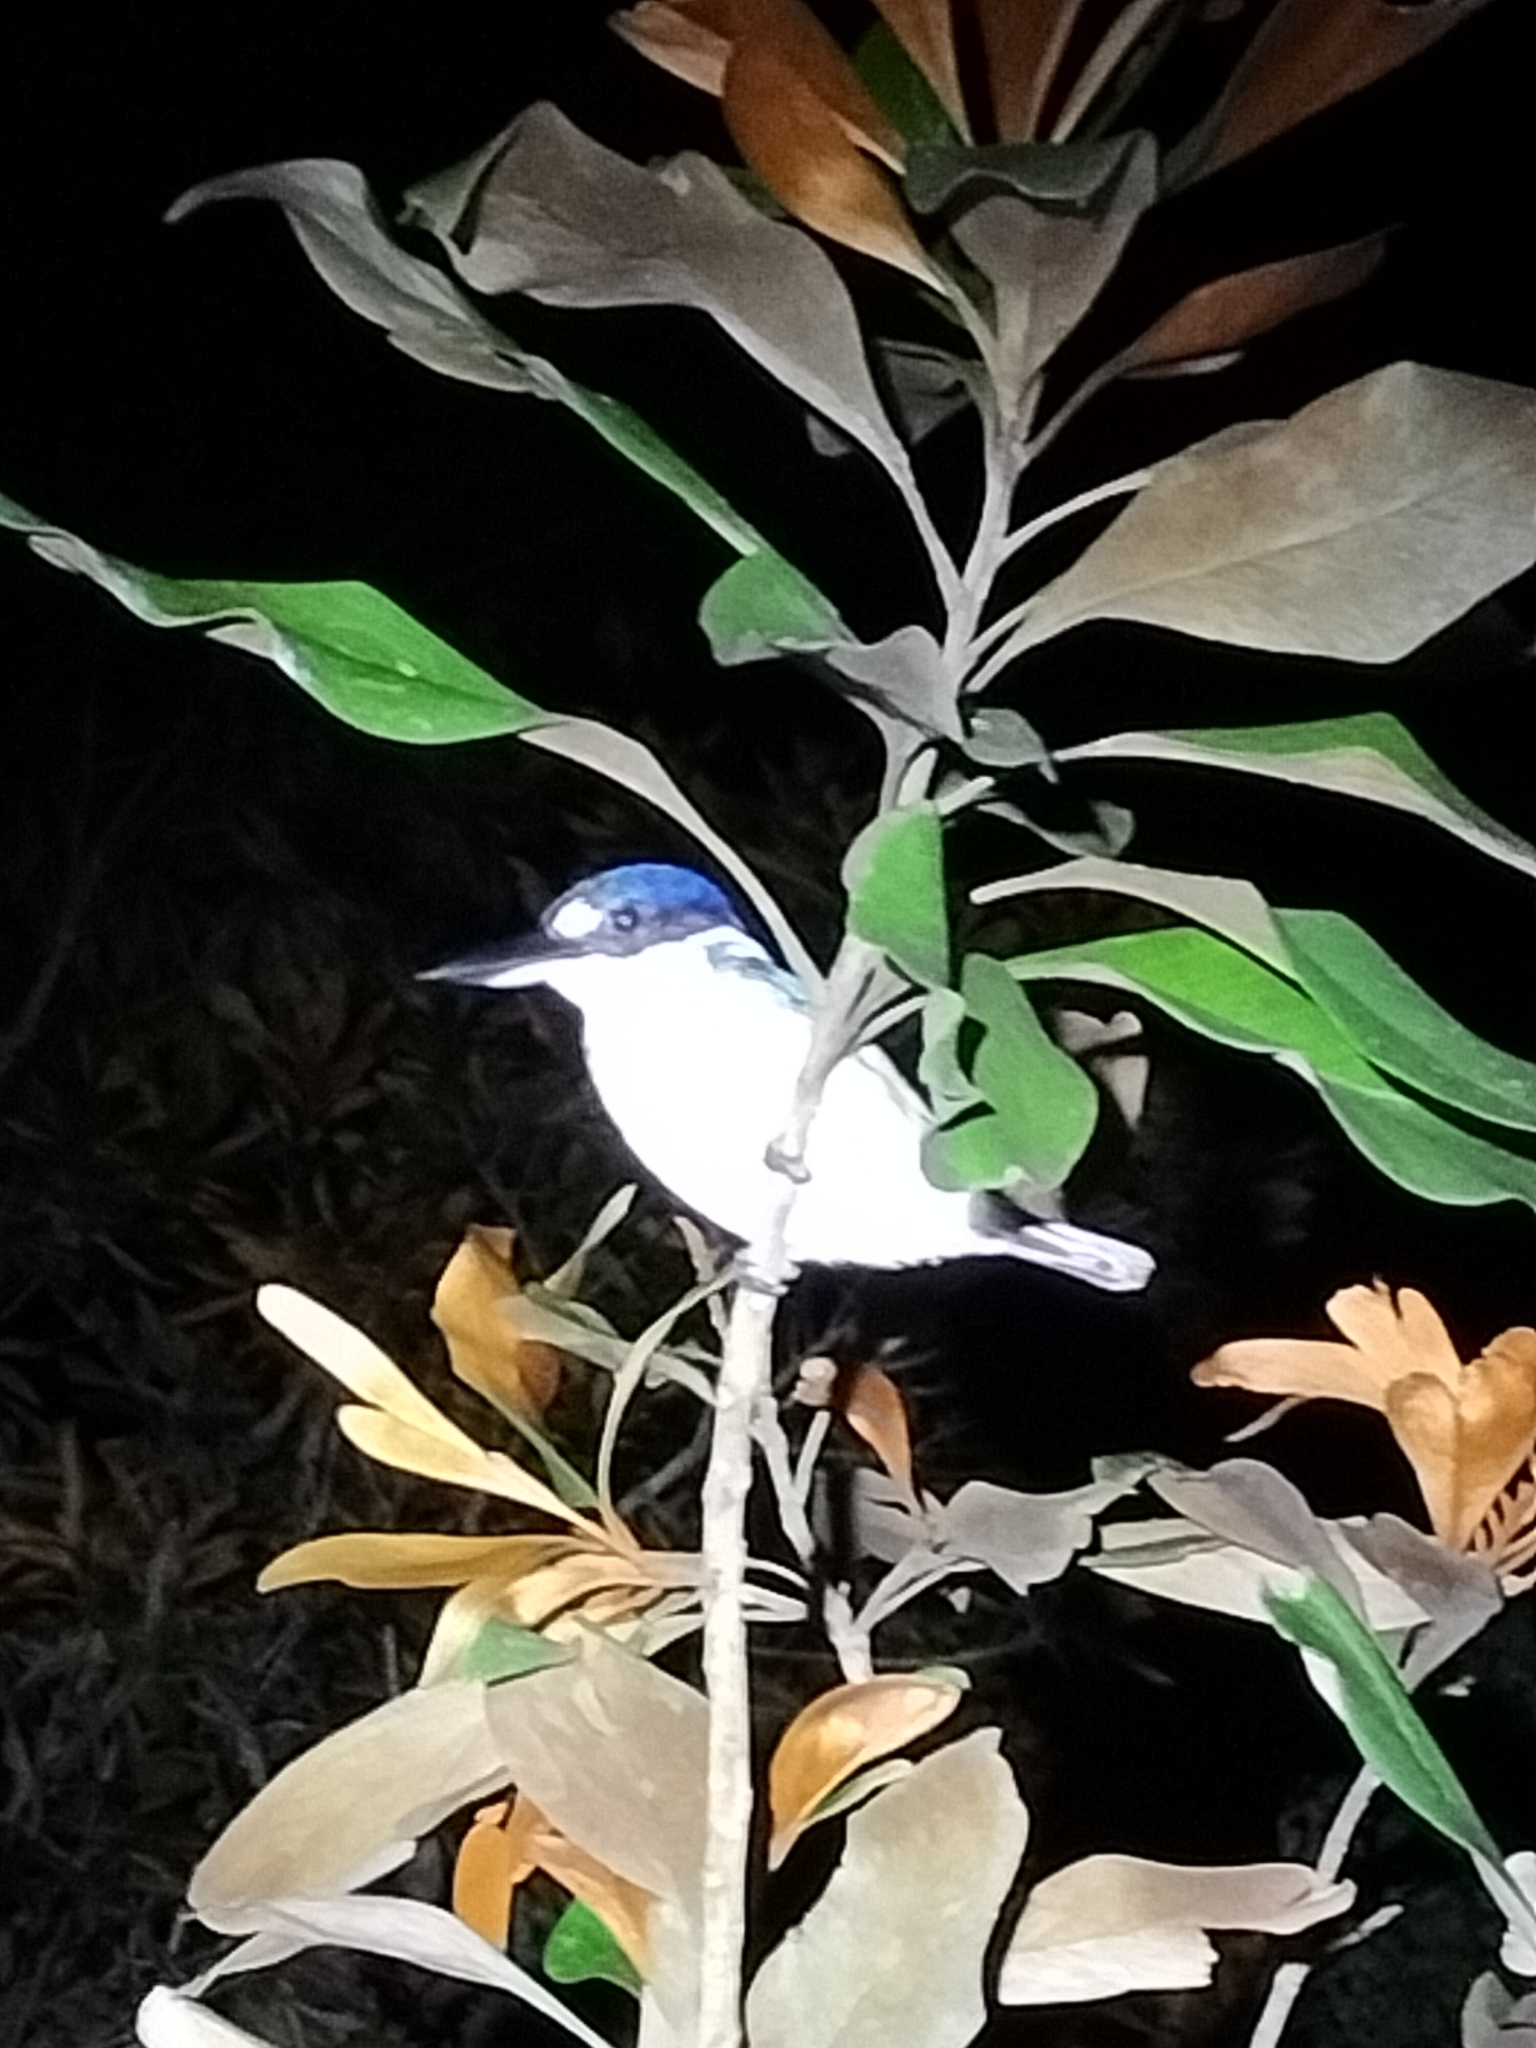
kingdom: Animalia
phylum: Chordata
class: Aves
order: Coraciiformes
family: Alcedinidae
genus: Todiramphus
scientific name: Todiramphus macleayii
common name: Forest kingfisher
